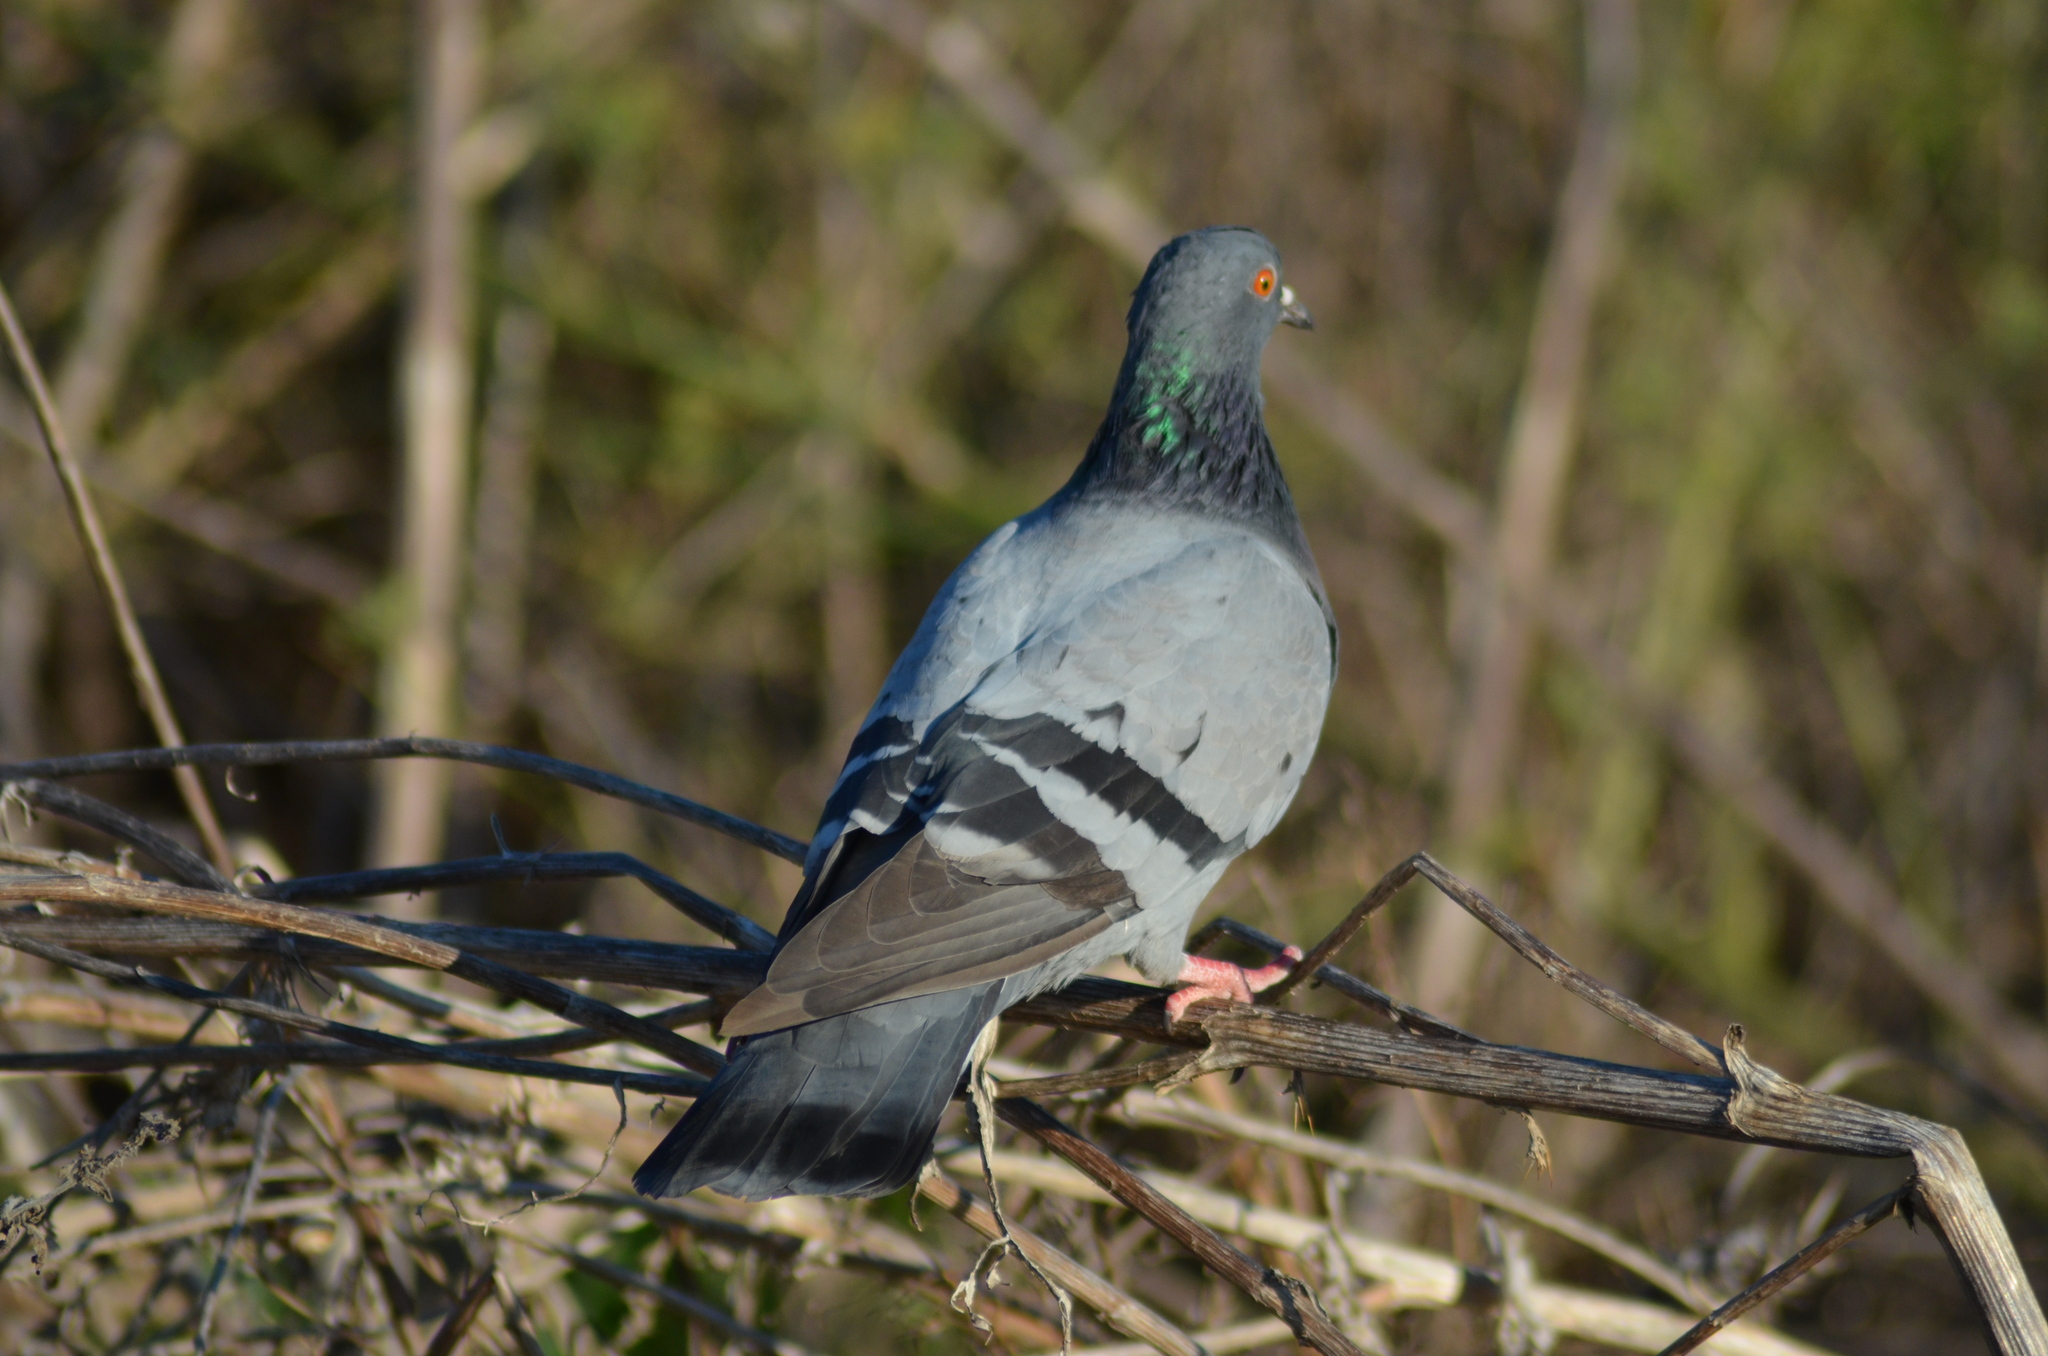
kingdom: Animalia
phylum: Chordata
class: Aves
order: Columbiformes
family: Columbidae
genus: Columba
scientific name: Columba livia
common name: Rock pigeon
